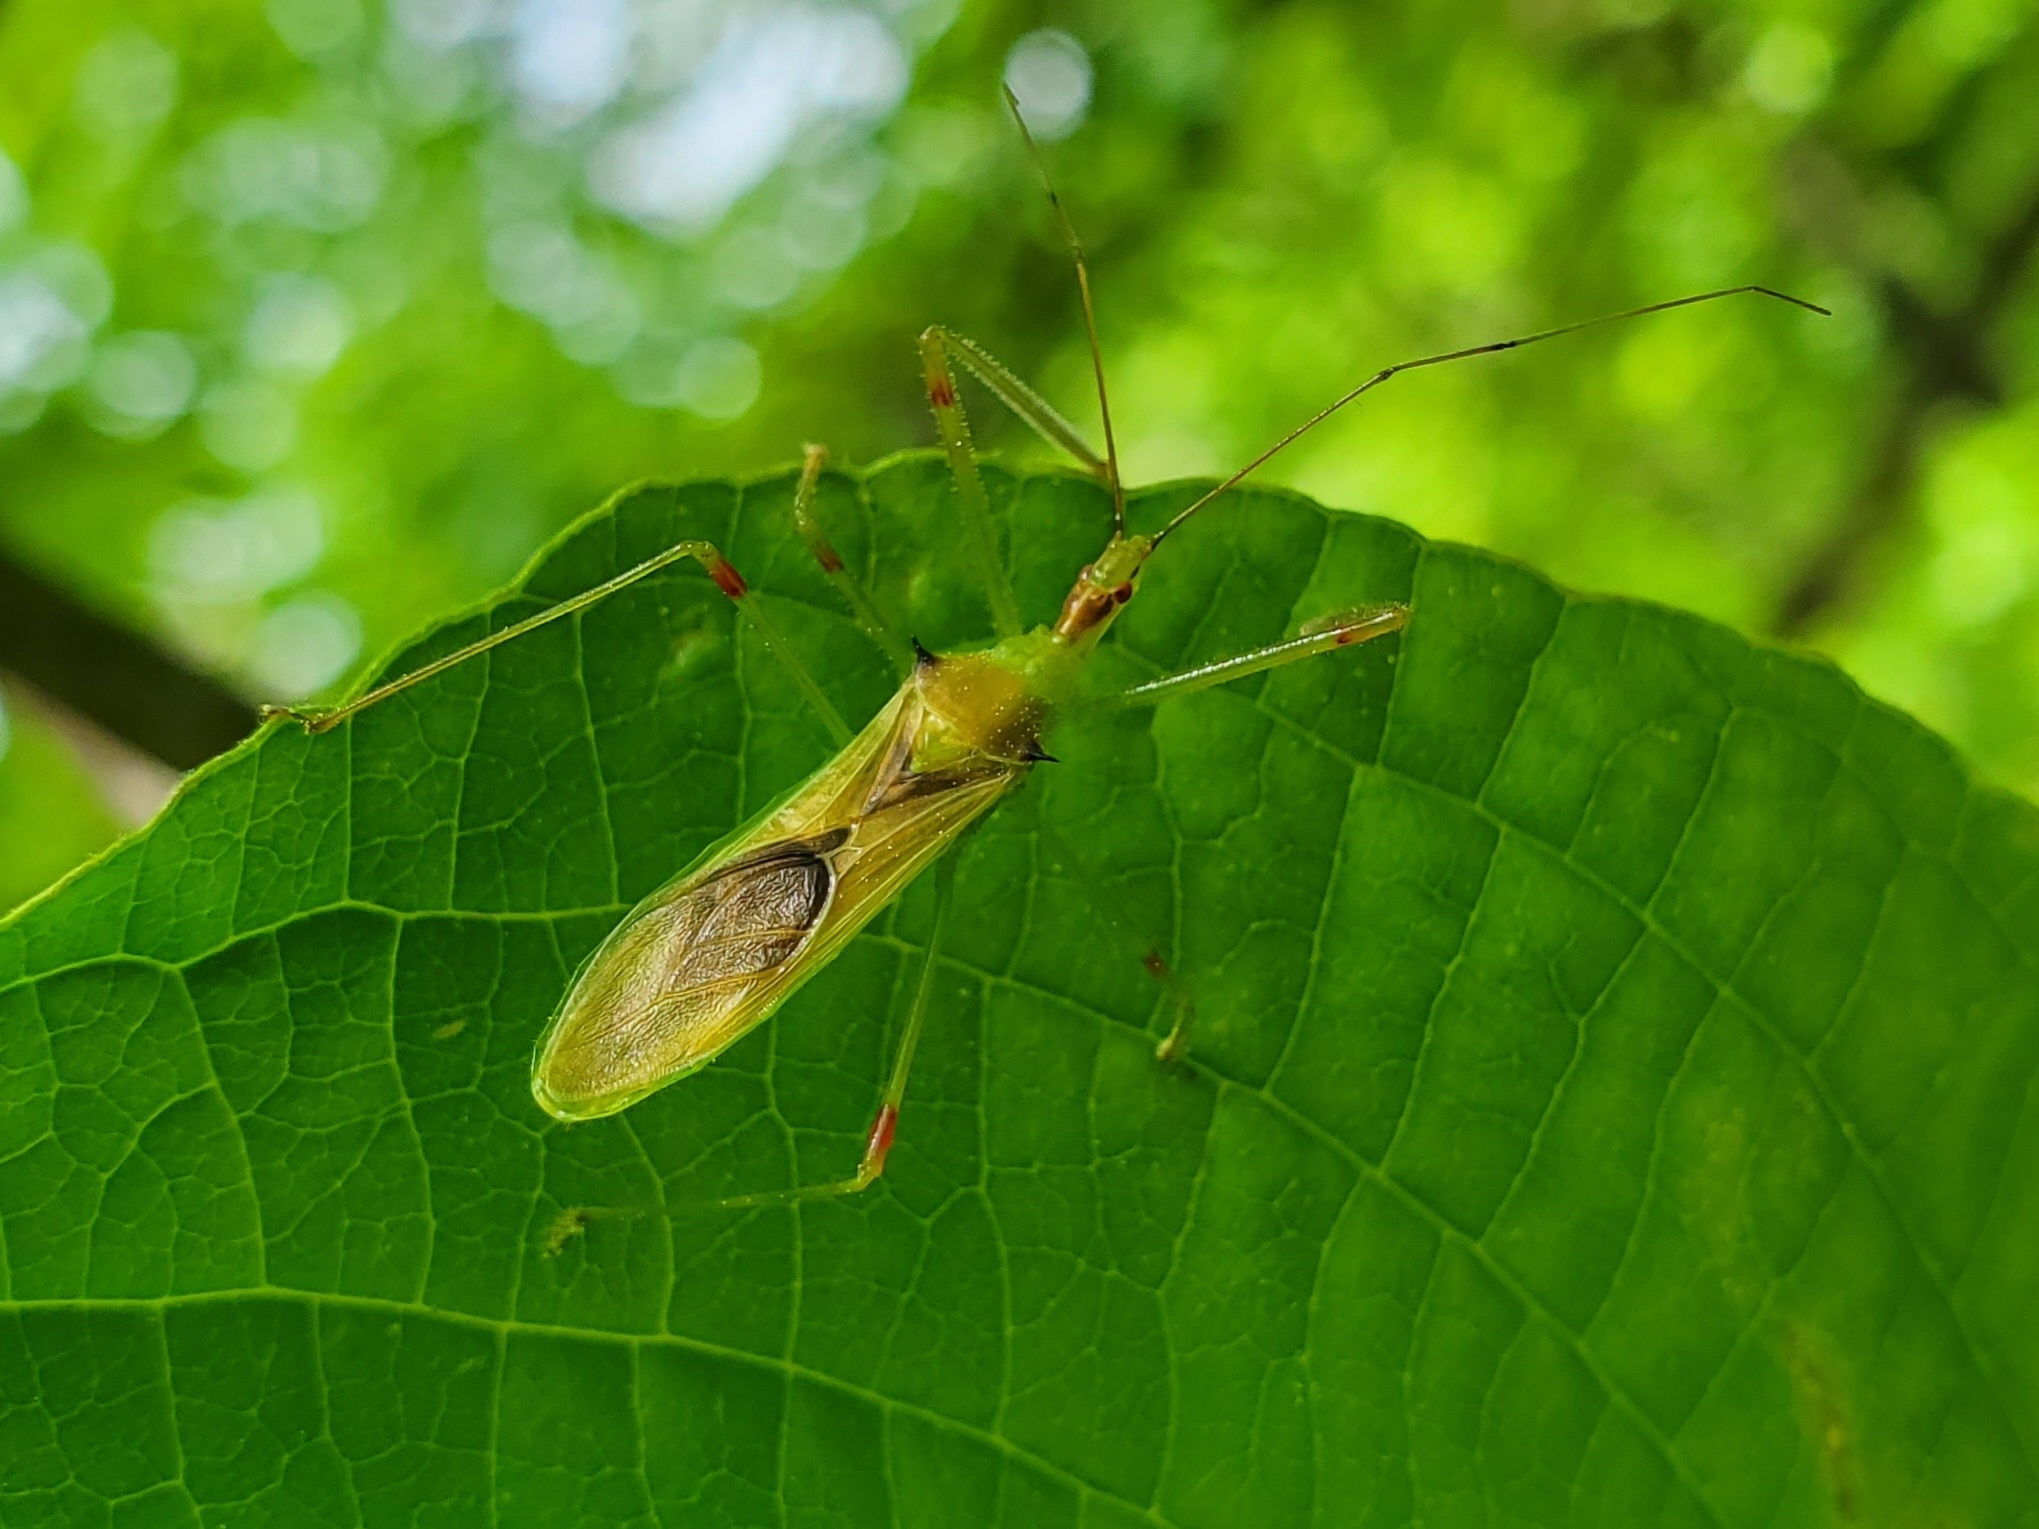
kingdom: Animalia
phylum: Arthropoda
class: Insecta
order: Hemiptera
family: Reduviidae
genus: Zelus
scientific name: Zelus luridus
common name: Pale green assassin bug
